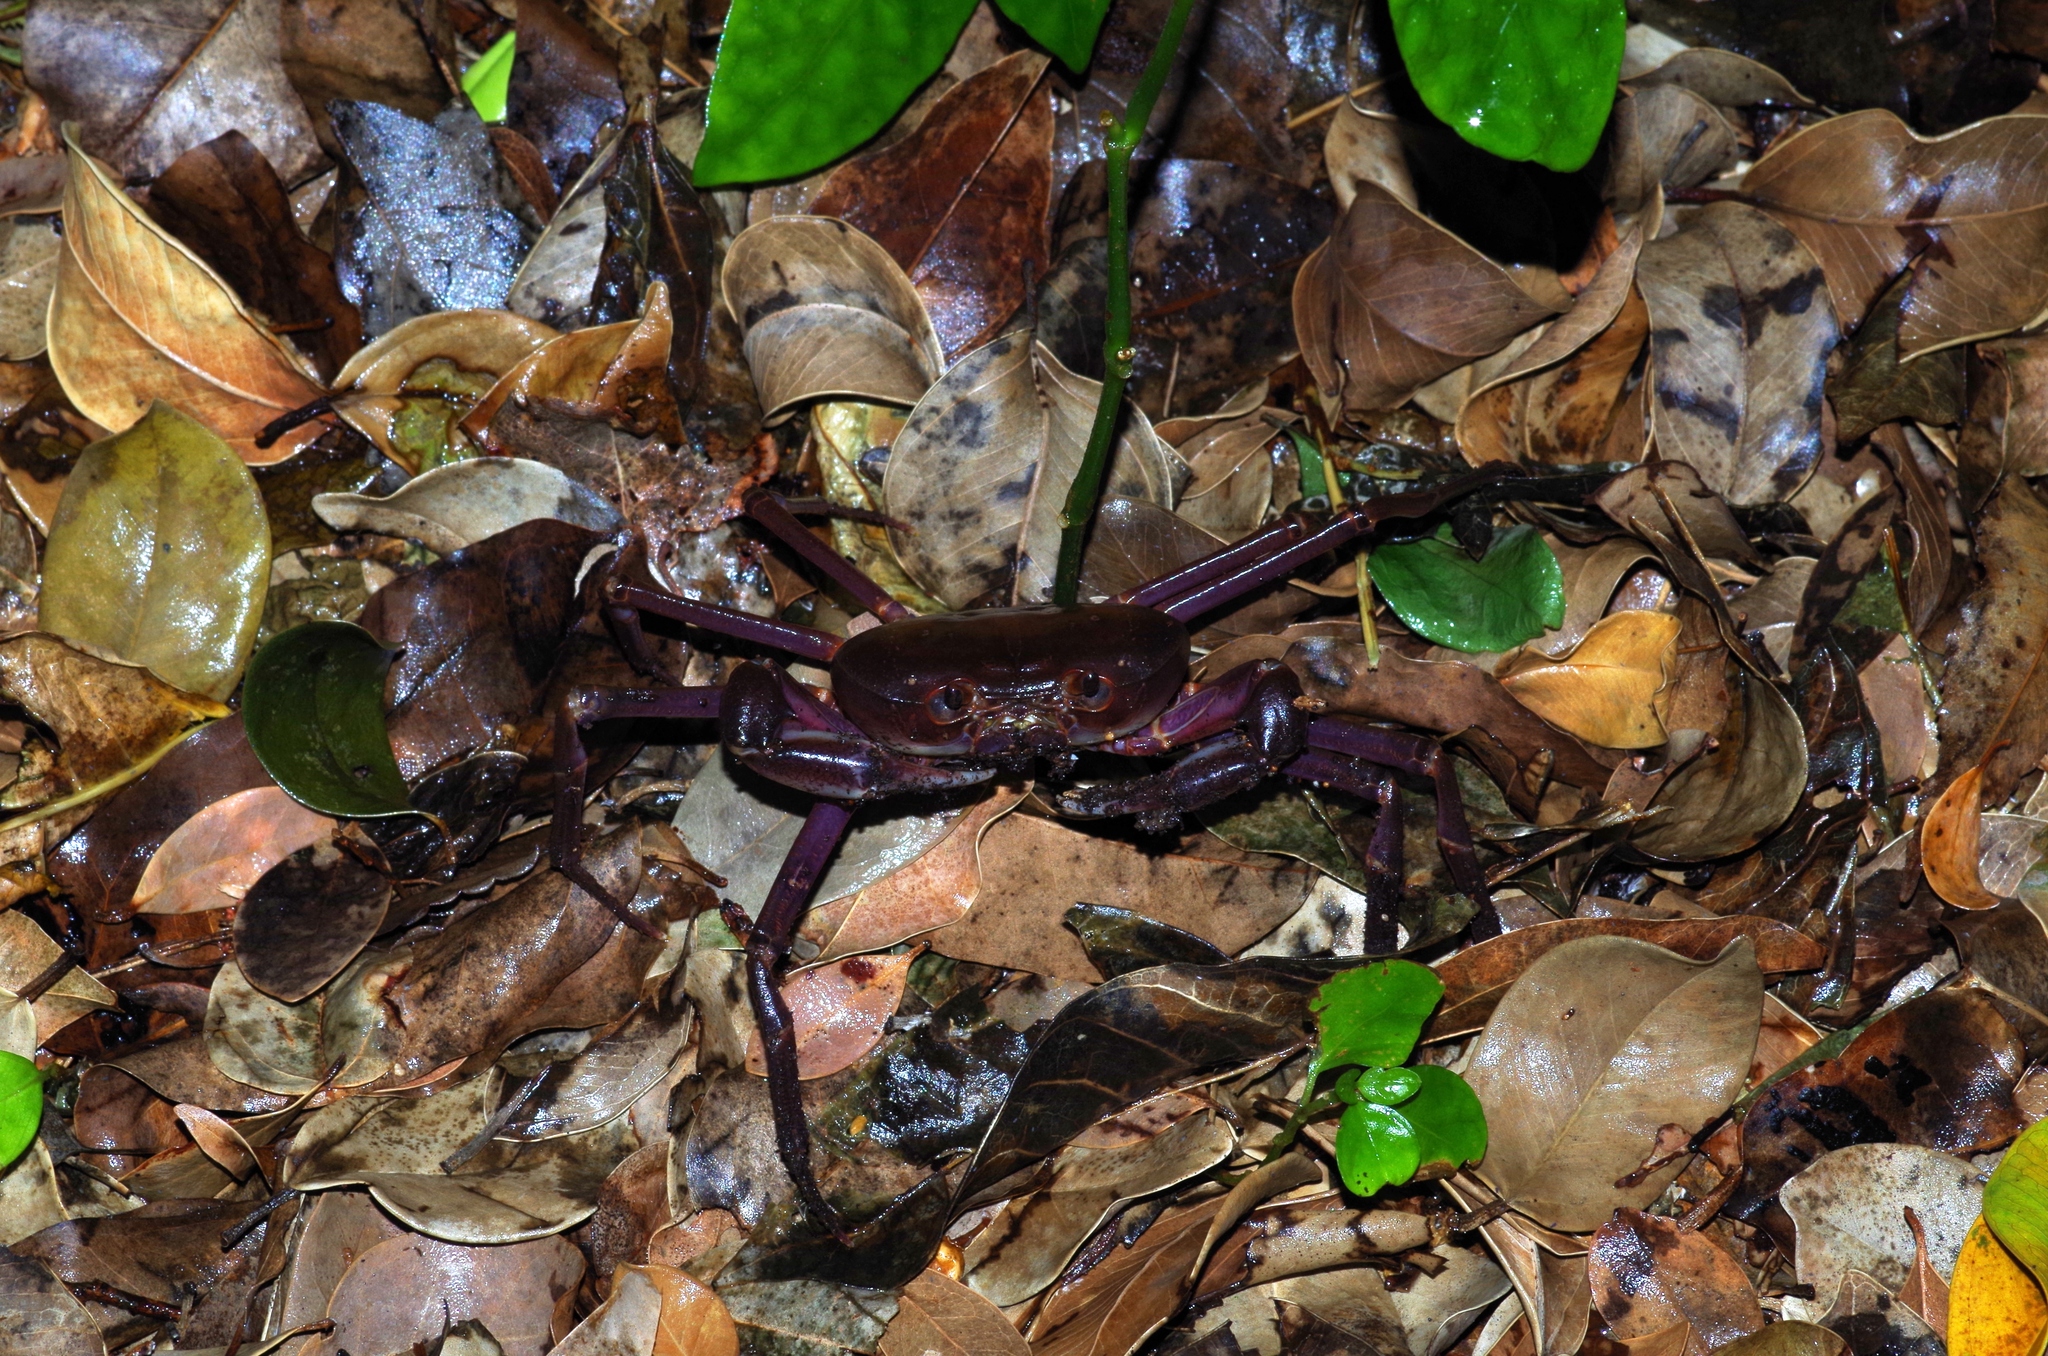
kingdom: Animalia
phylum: Arthropoda
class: Malacostraca
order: Decapoda
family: Potamidae
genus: Geothelphusa
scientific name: Geothelphusa tenuimanus
